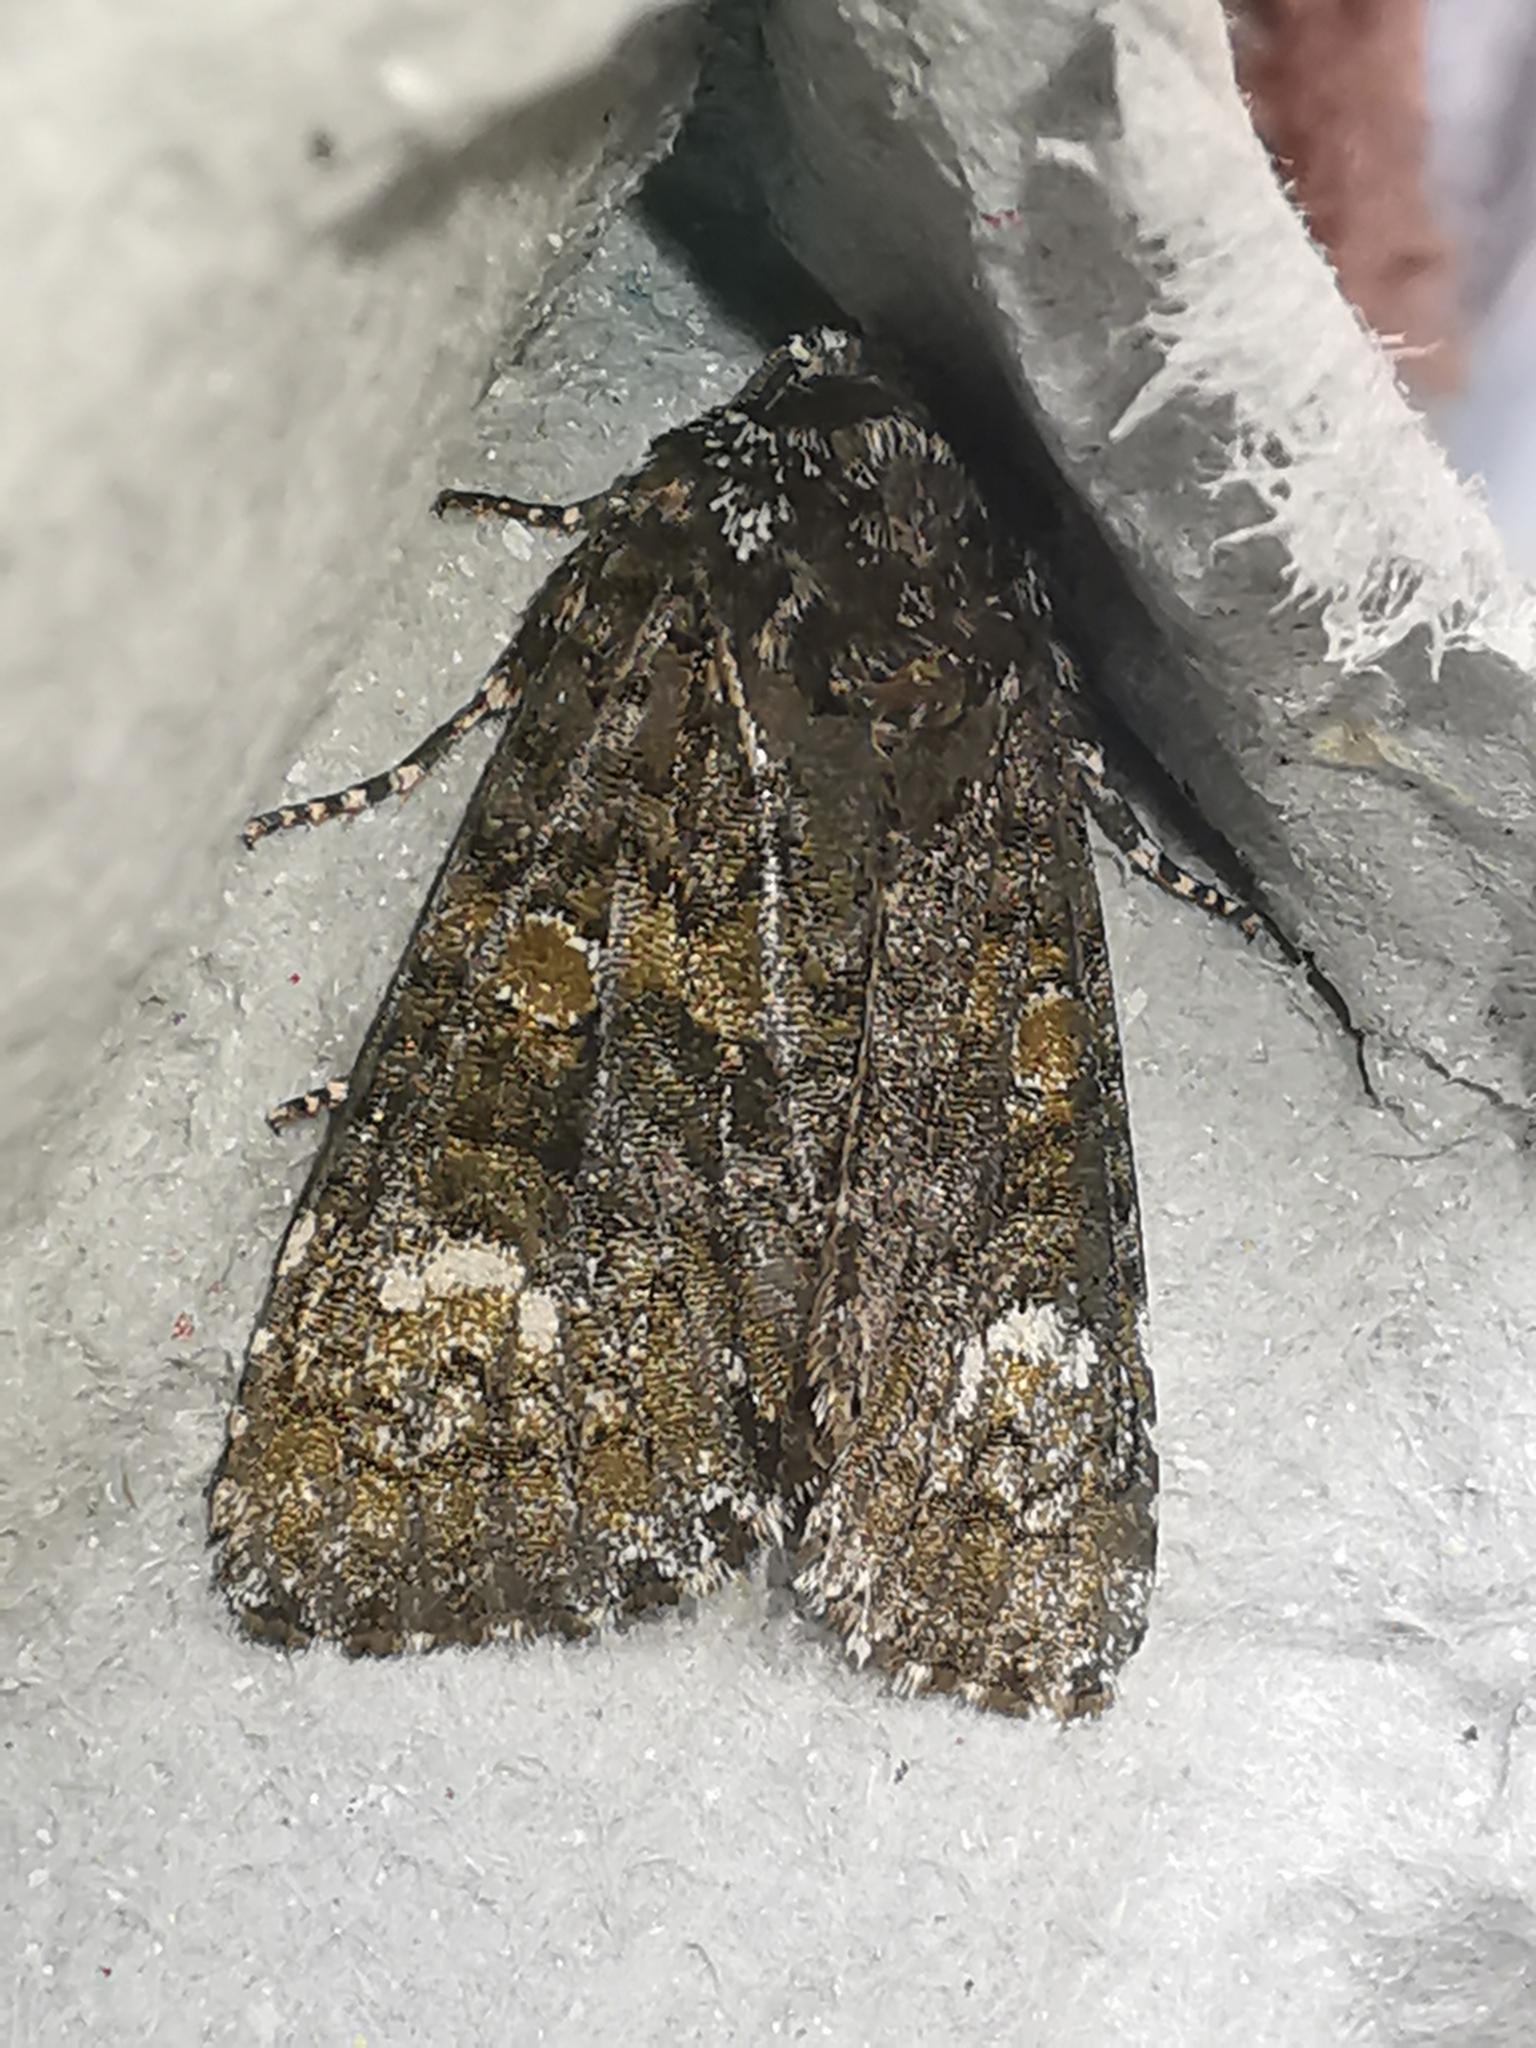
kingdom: Animalia
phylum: Arthropoda
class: Insecta
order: Lepidoptera
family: Noctuidae
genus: Craniophora
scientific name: Craniophora ligustri
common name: Coronet
